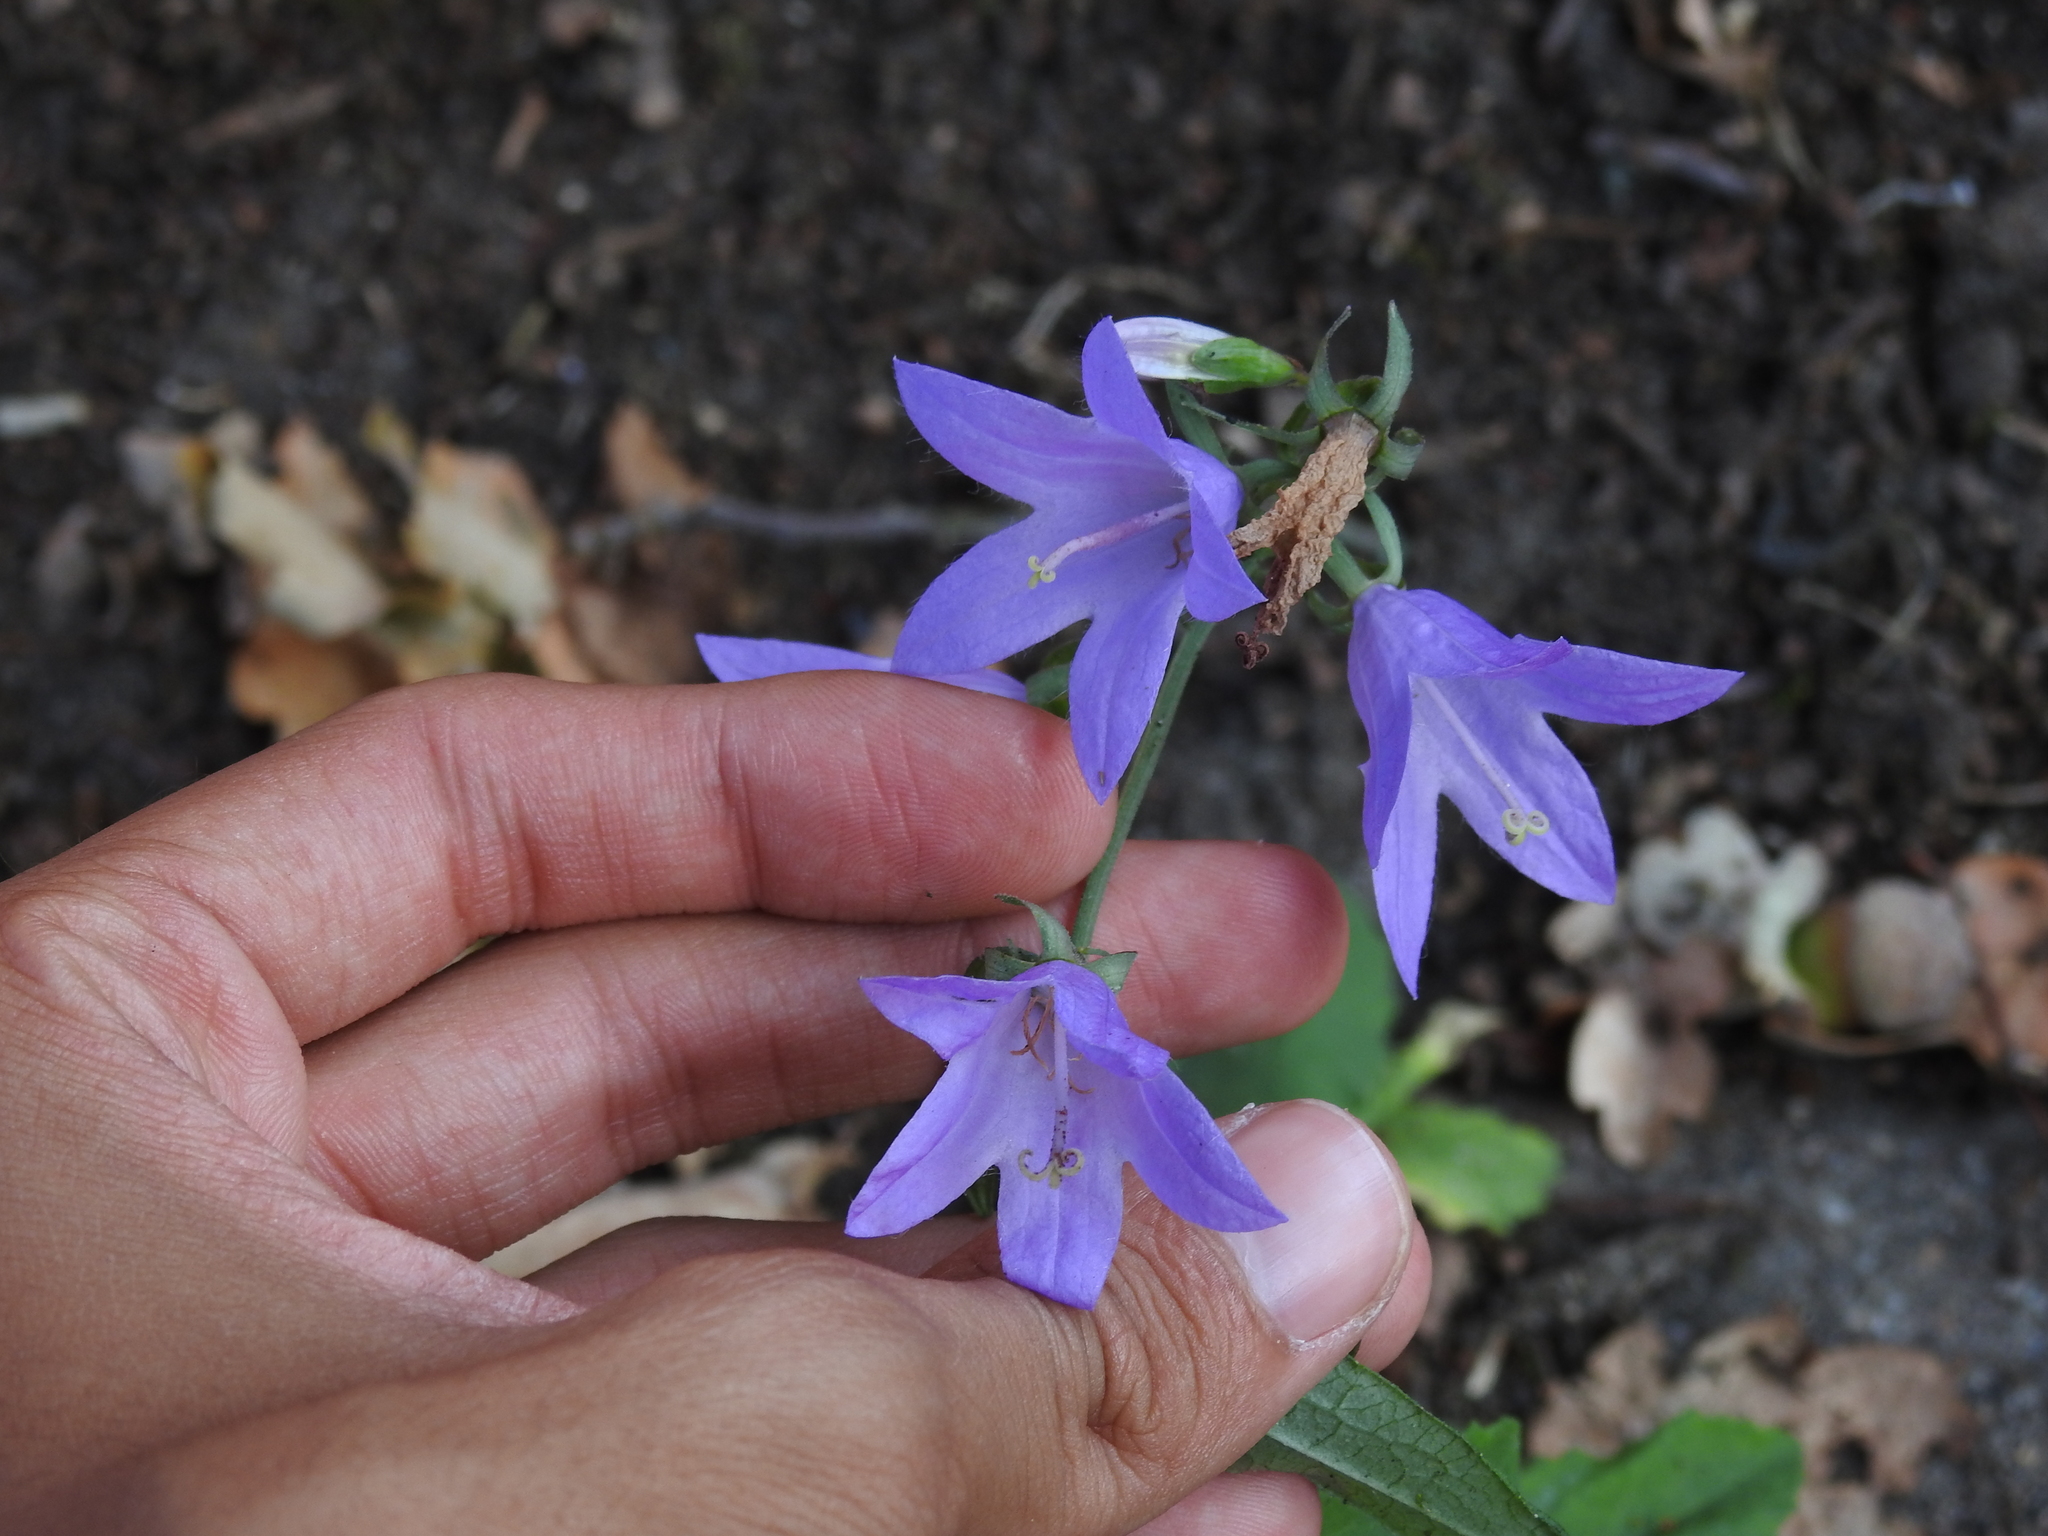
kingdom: Plantae
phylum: Tracheophyta
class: Magnoliopsida
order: Asterales
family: Campanulaceae
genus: Campanula
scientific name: Campanula rapunculoides
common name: Creeping bellflower
